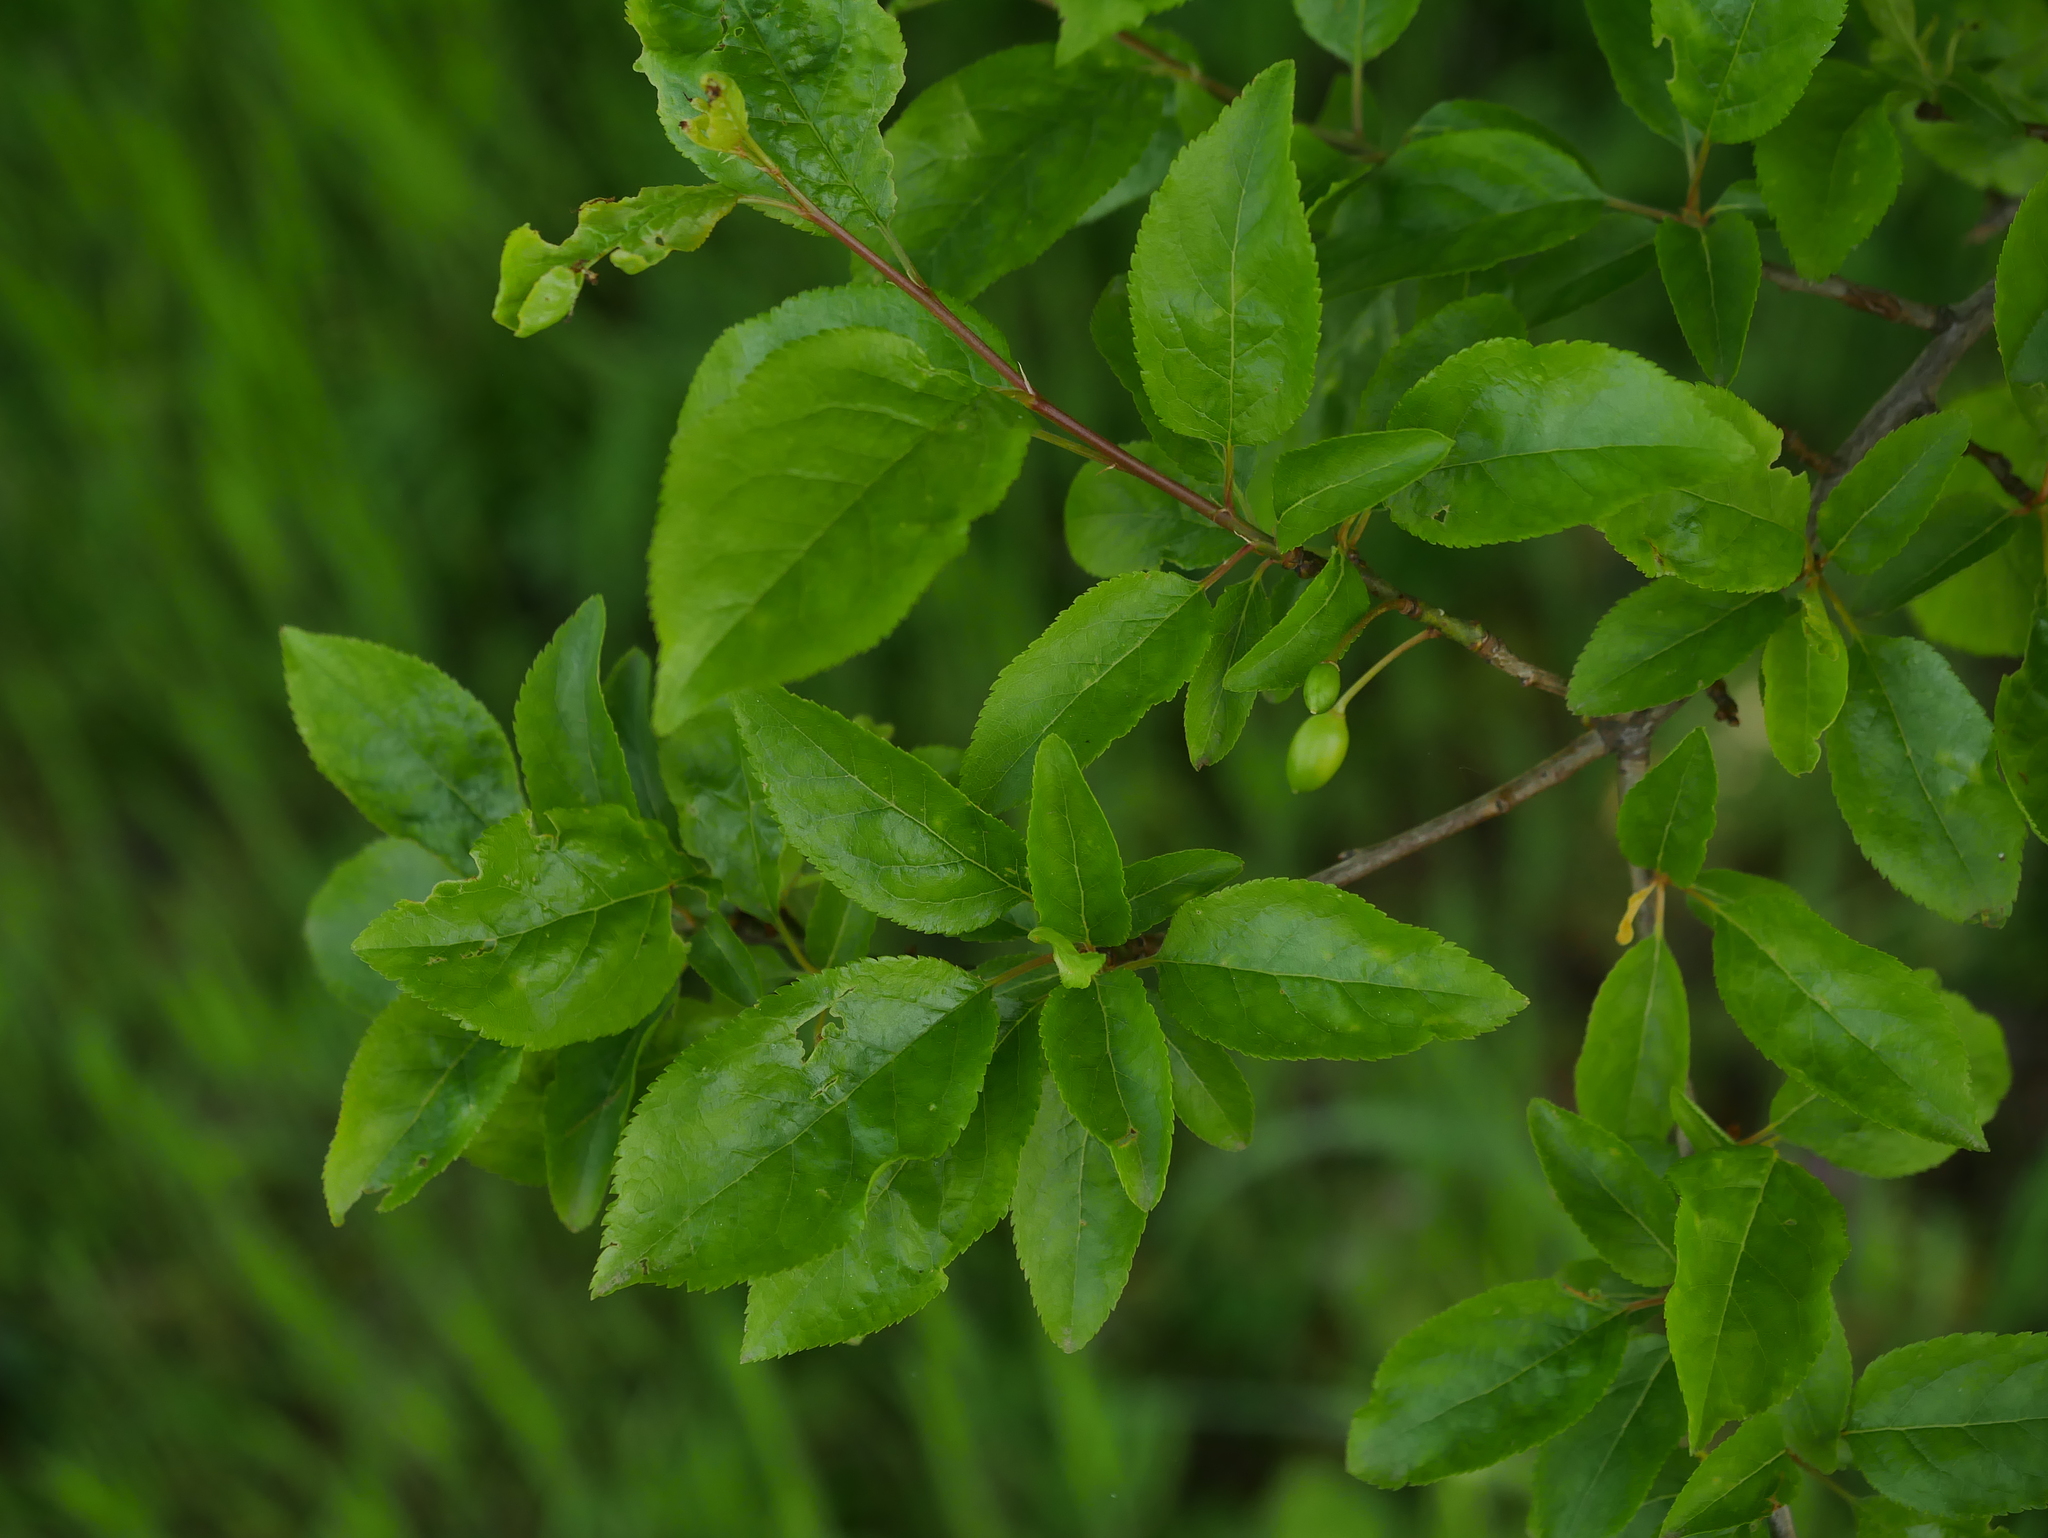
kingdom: Plantae
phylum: Tracheophyta
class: Magnoliopsida
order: Rosales
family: Rosaceae
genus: Prunus
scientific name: Prunus cerasifera
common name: Cherry plum
